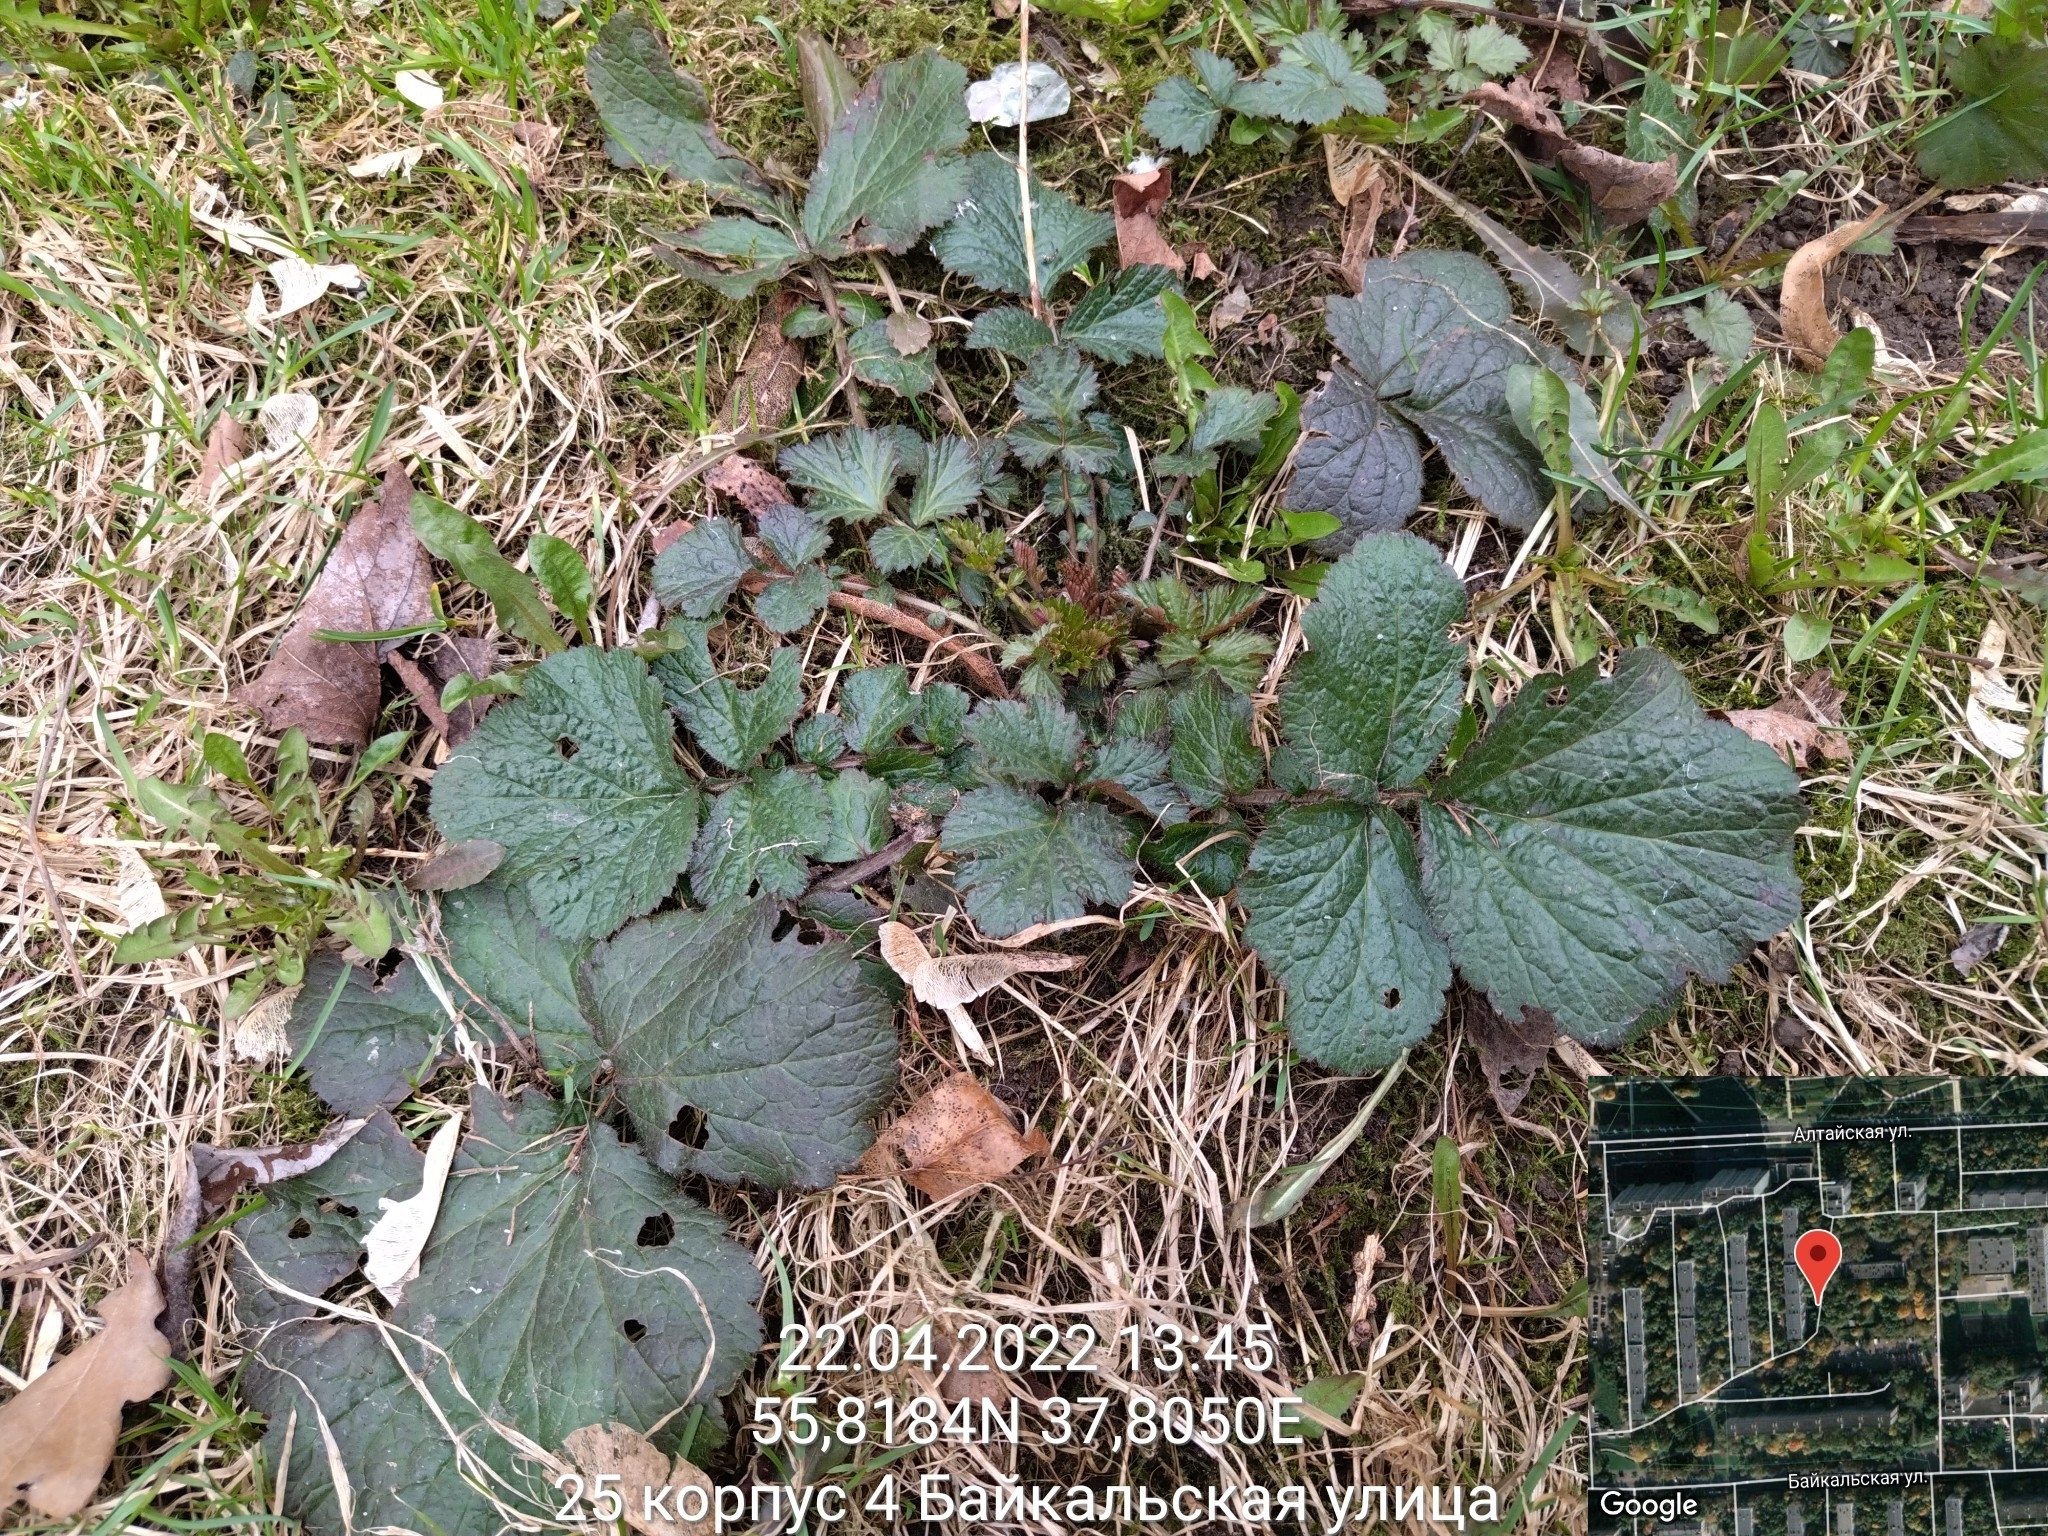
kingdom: Plantae
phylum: Tracheophyta
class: Magnoliopsida
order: Rosales
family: Rosaceae
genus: Geum
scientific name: Geum urbanum
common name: Wood avens
